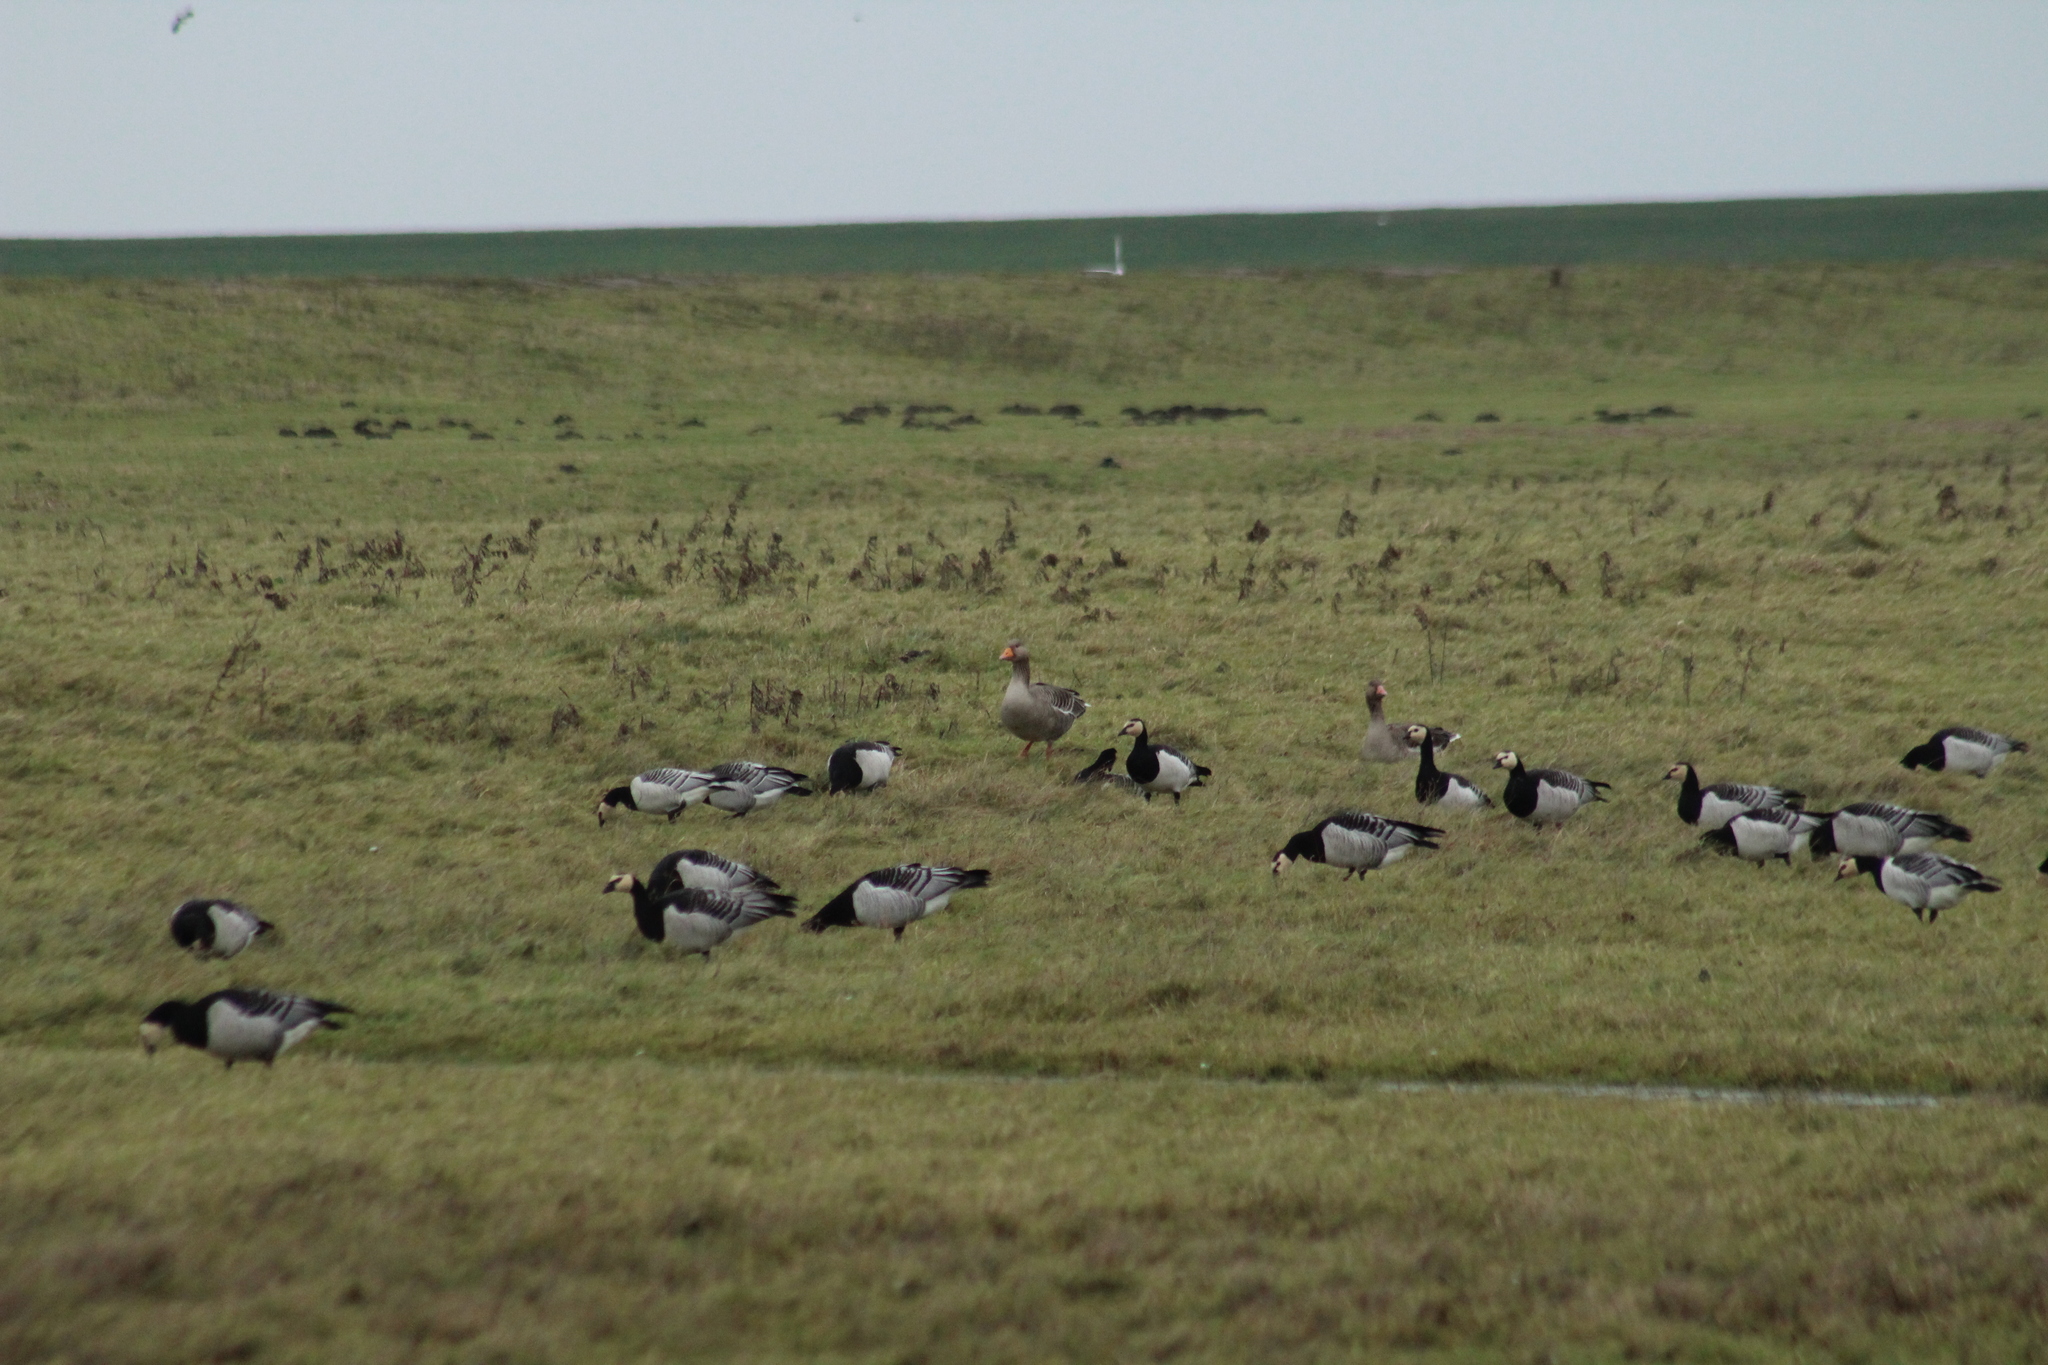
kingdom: Animalia
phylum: Chordata
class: Aves
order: Anseriformes
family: Anatidae
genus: Branta
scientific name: Branta leucopsis
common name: Barnacle goose
